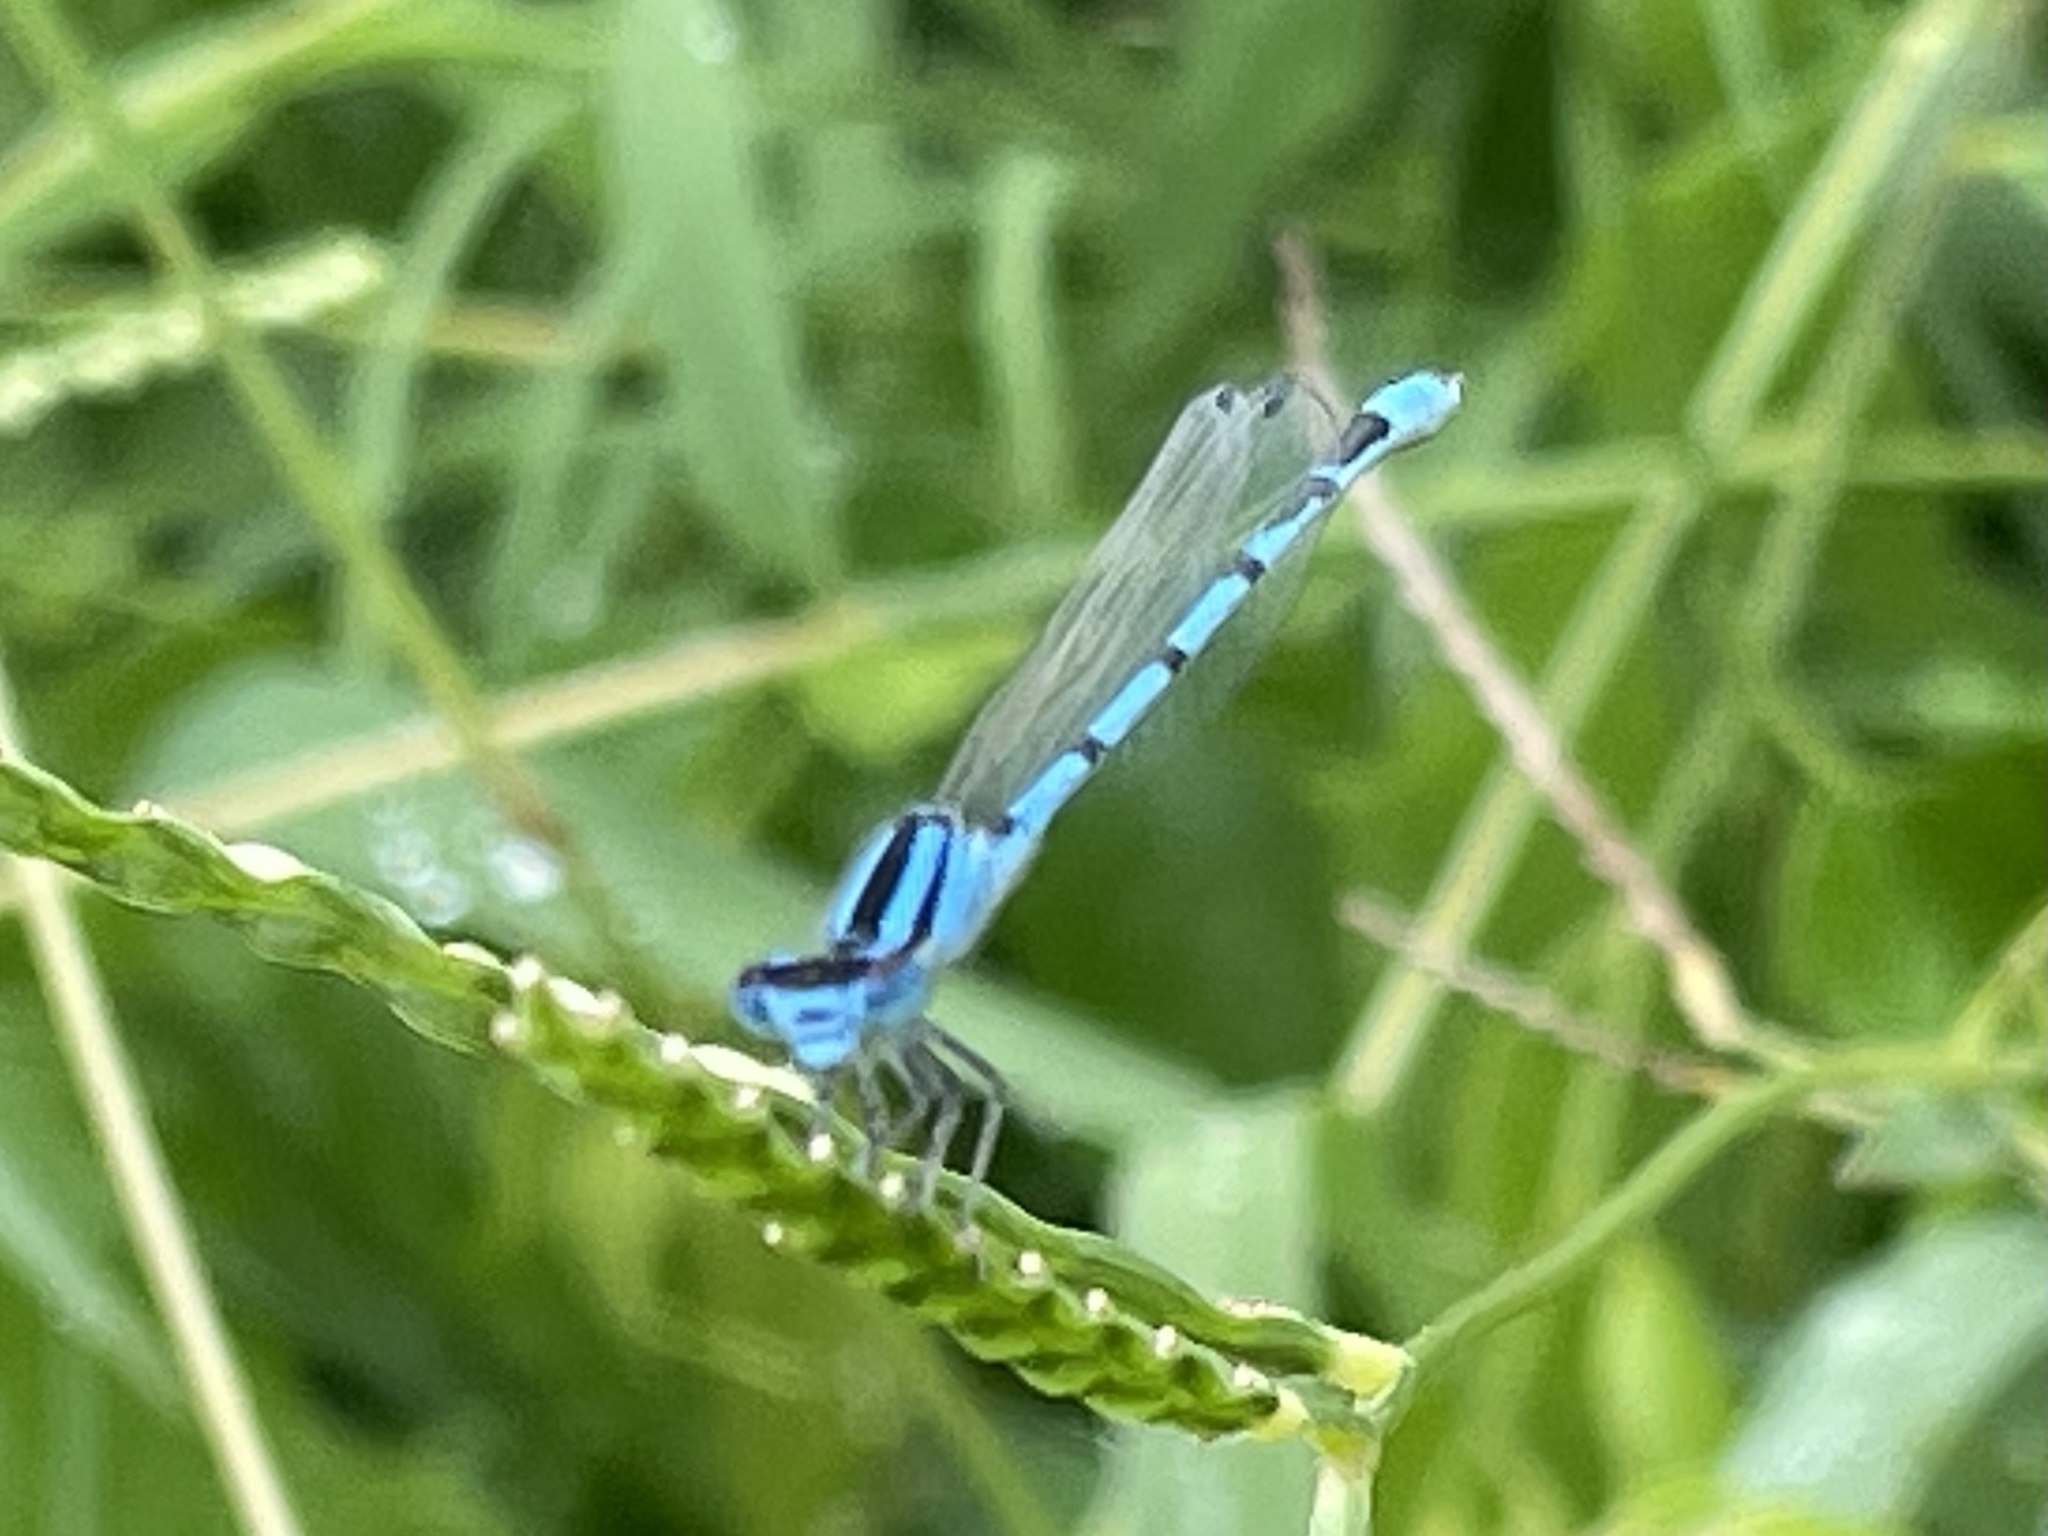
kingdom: Animalia
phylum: Arthropoda
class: Insecta
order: Odonata
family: Coenagrionidae
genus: Enallagma
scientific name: Enallagma civile
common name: Damselfly
